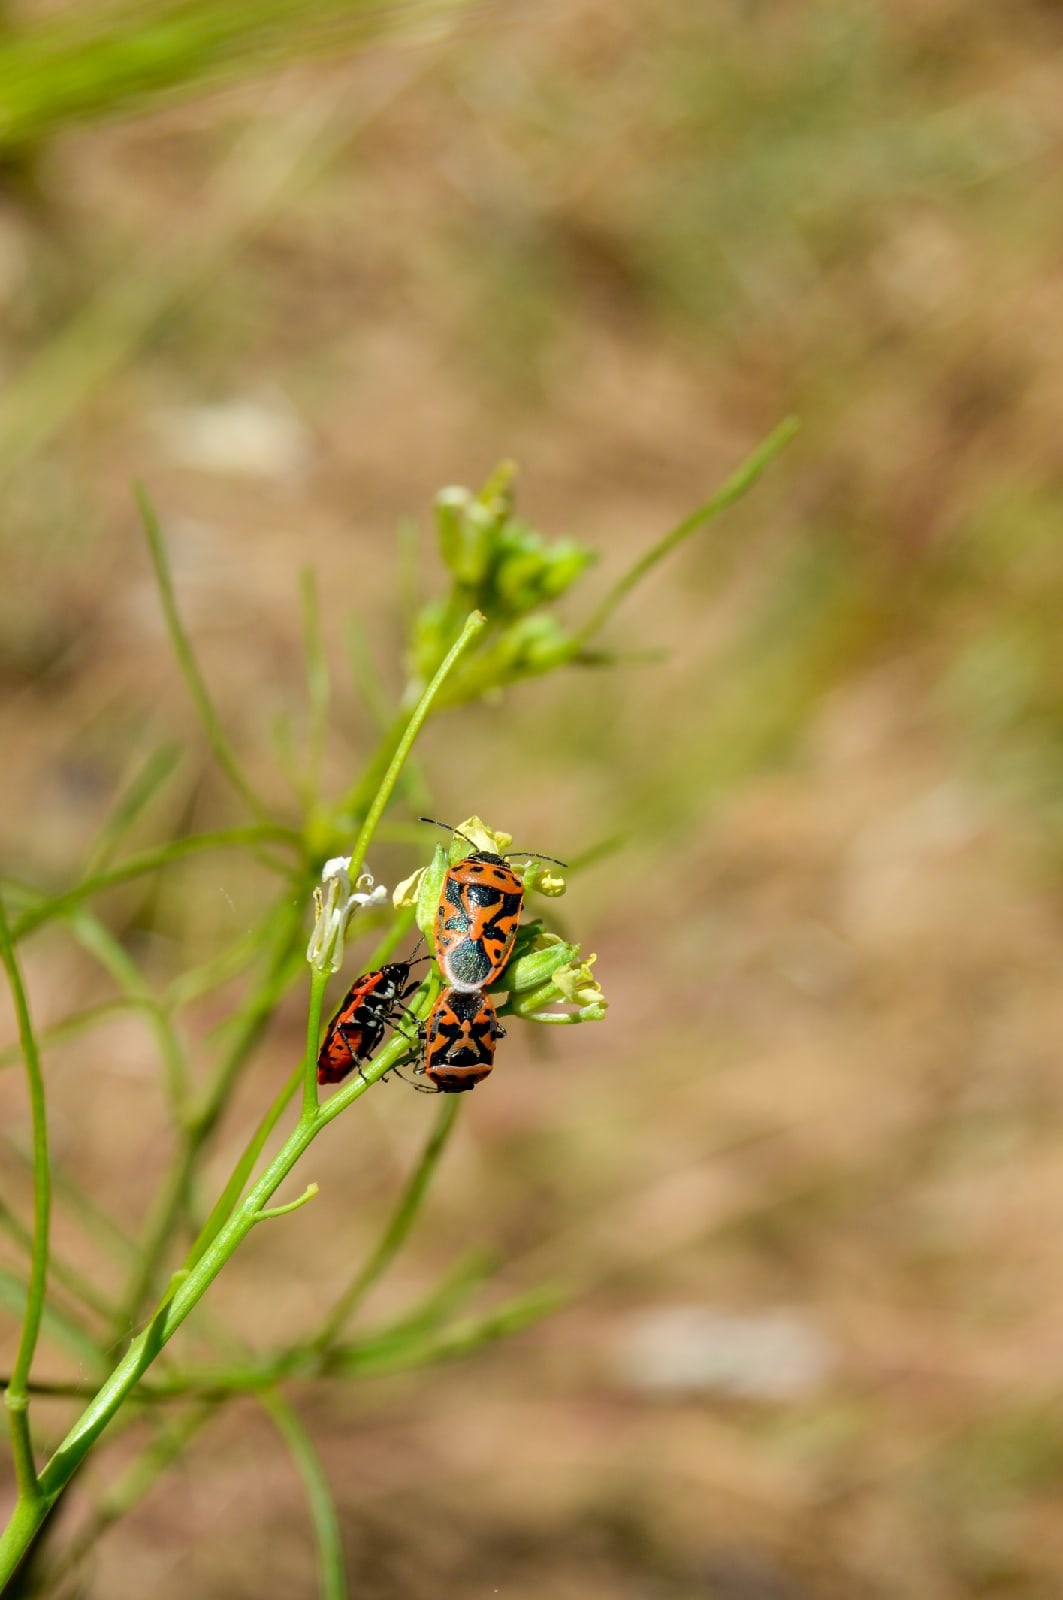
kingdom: Animalia
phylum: Arthropoda
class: Insecta
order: Hemiptera
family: Pentatomidae
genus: Eurydema
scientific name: Eurydema ornata
